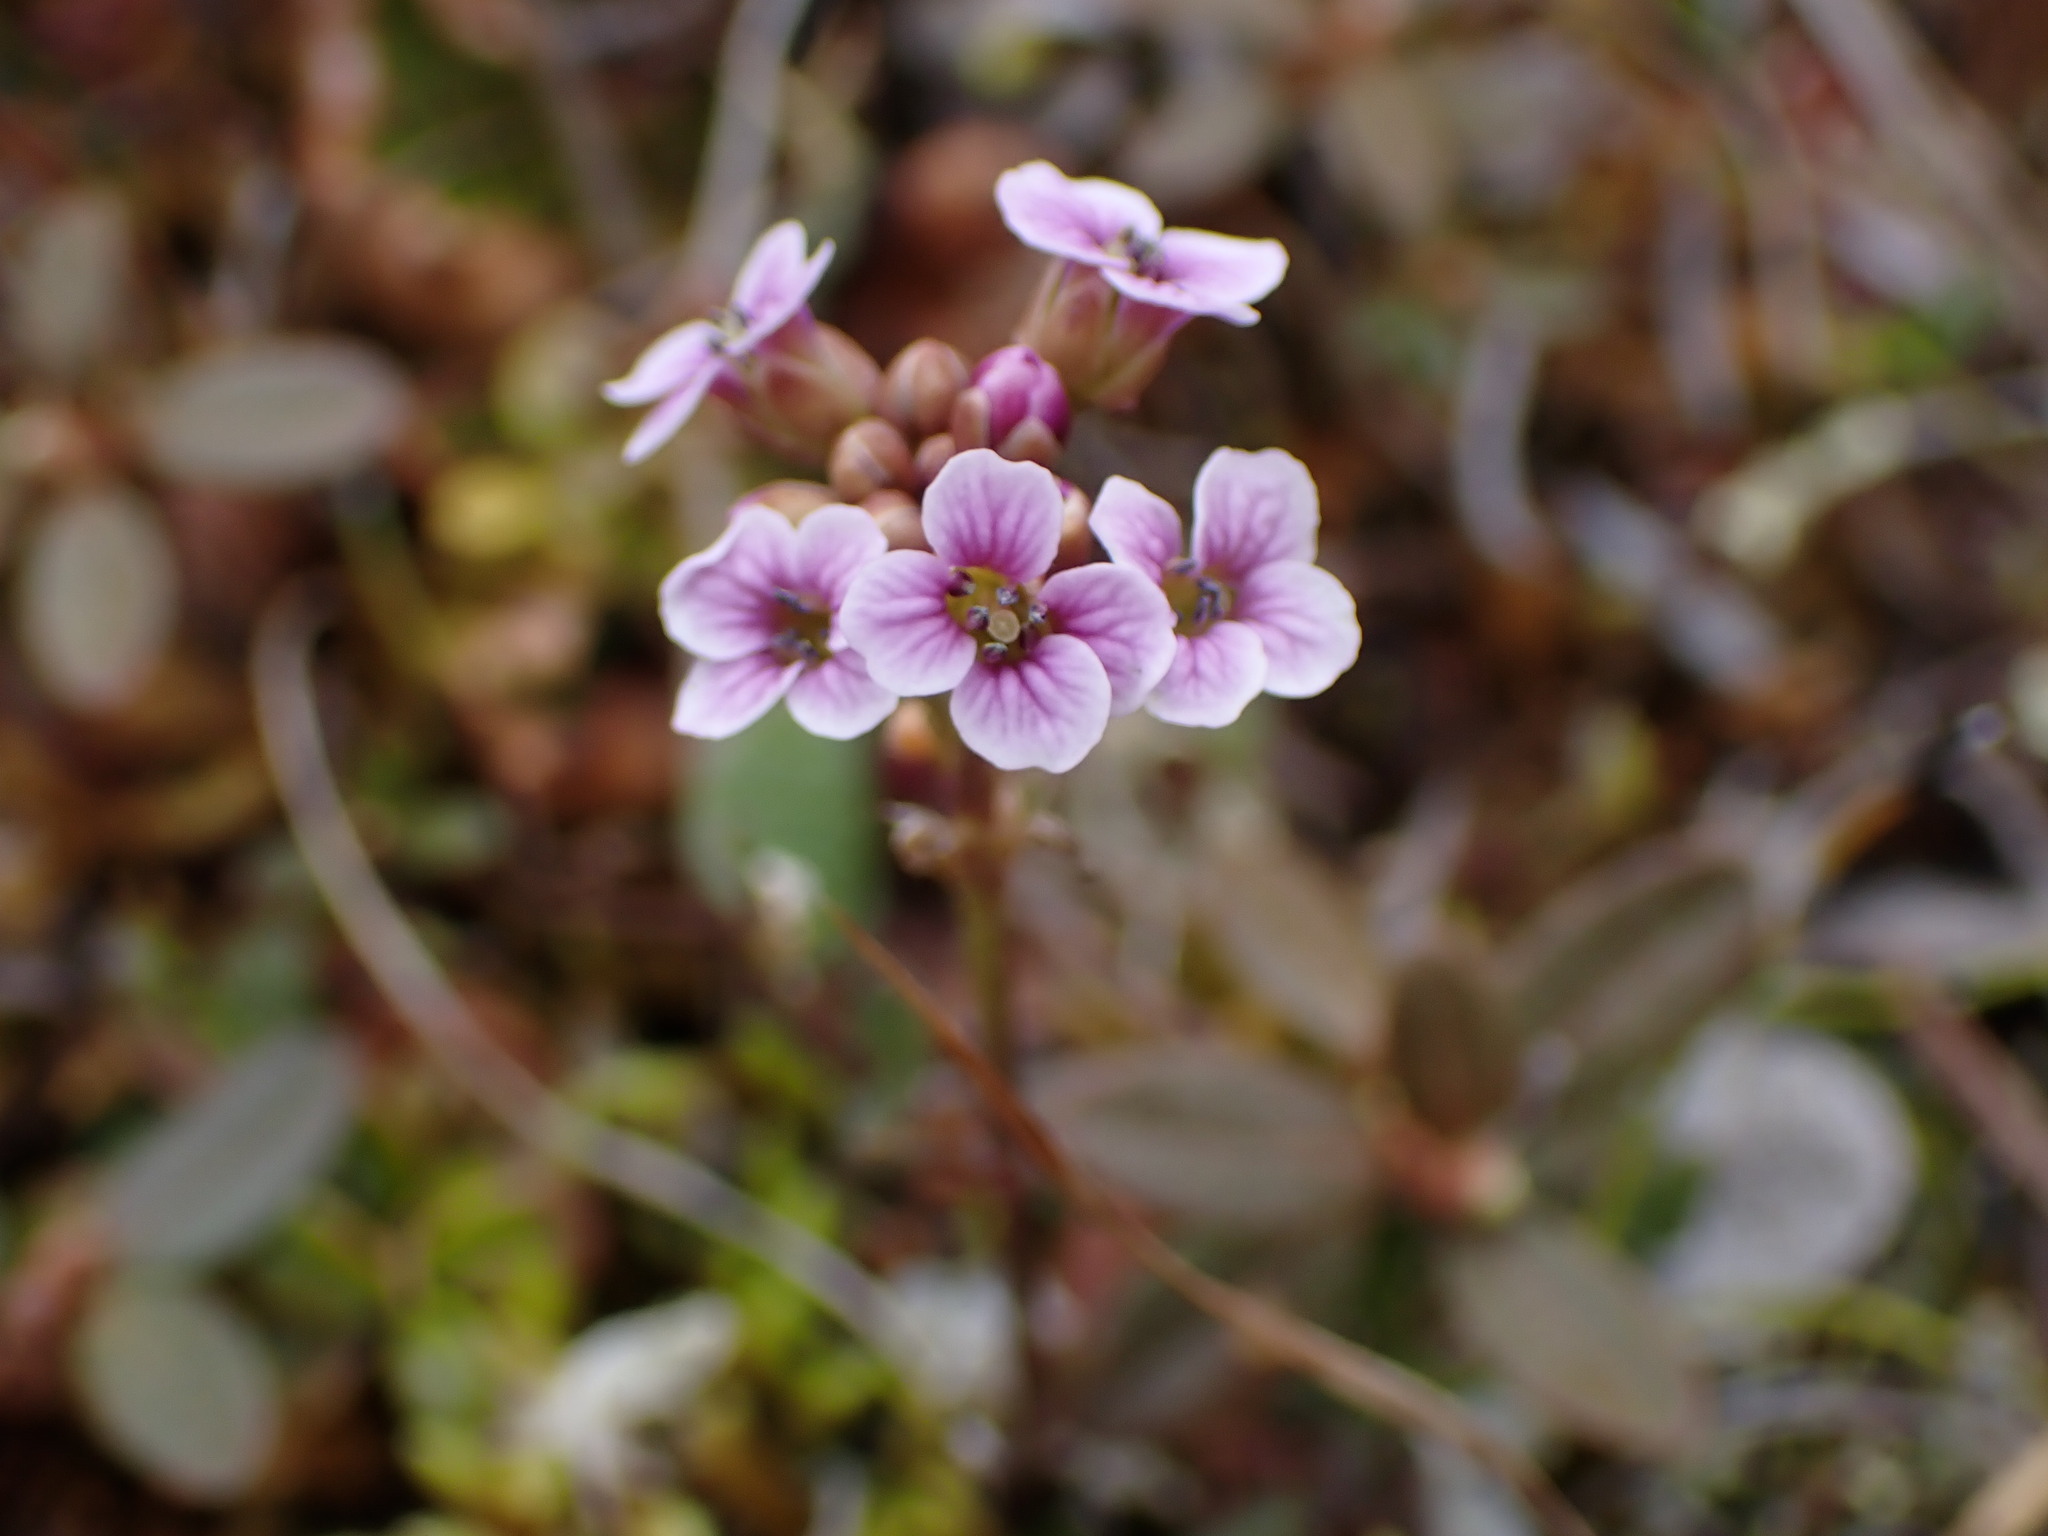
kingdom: Plantae
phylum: Tracheophyta
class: Magnoliopsida
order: Brassicales
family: Brassicaceae
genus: Cardamine
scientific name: Cardamine purpurea
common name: Purple bittercress
